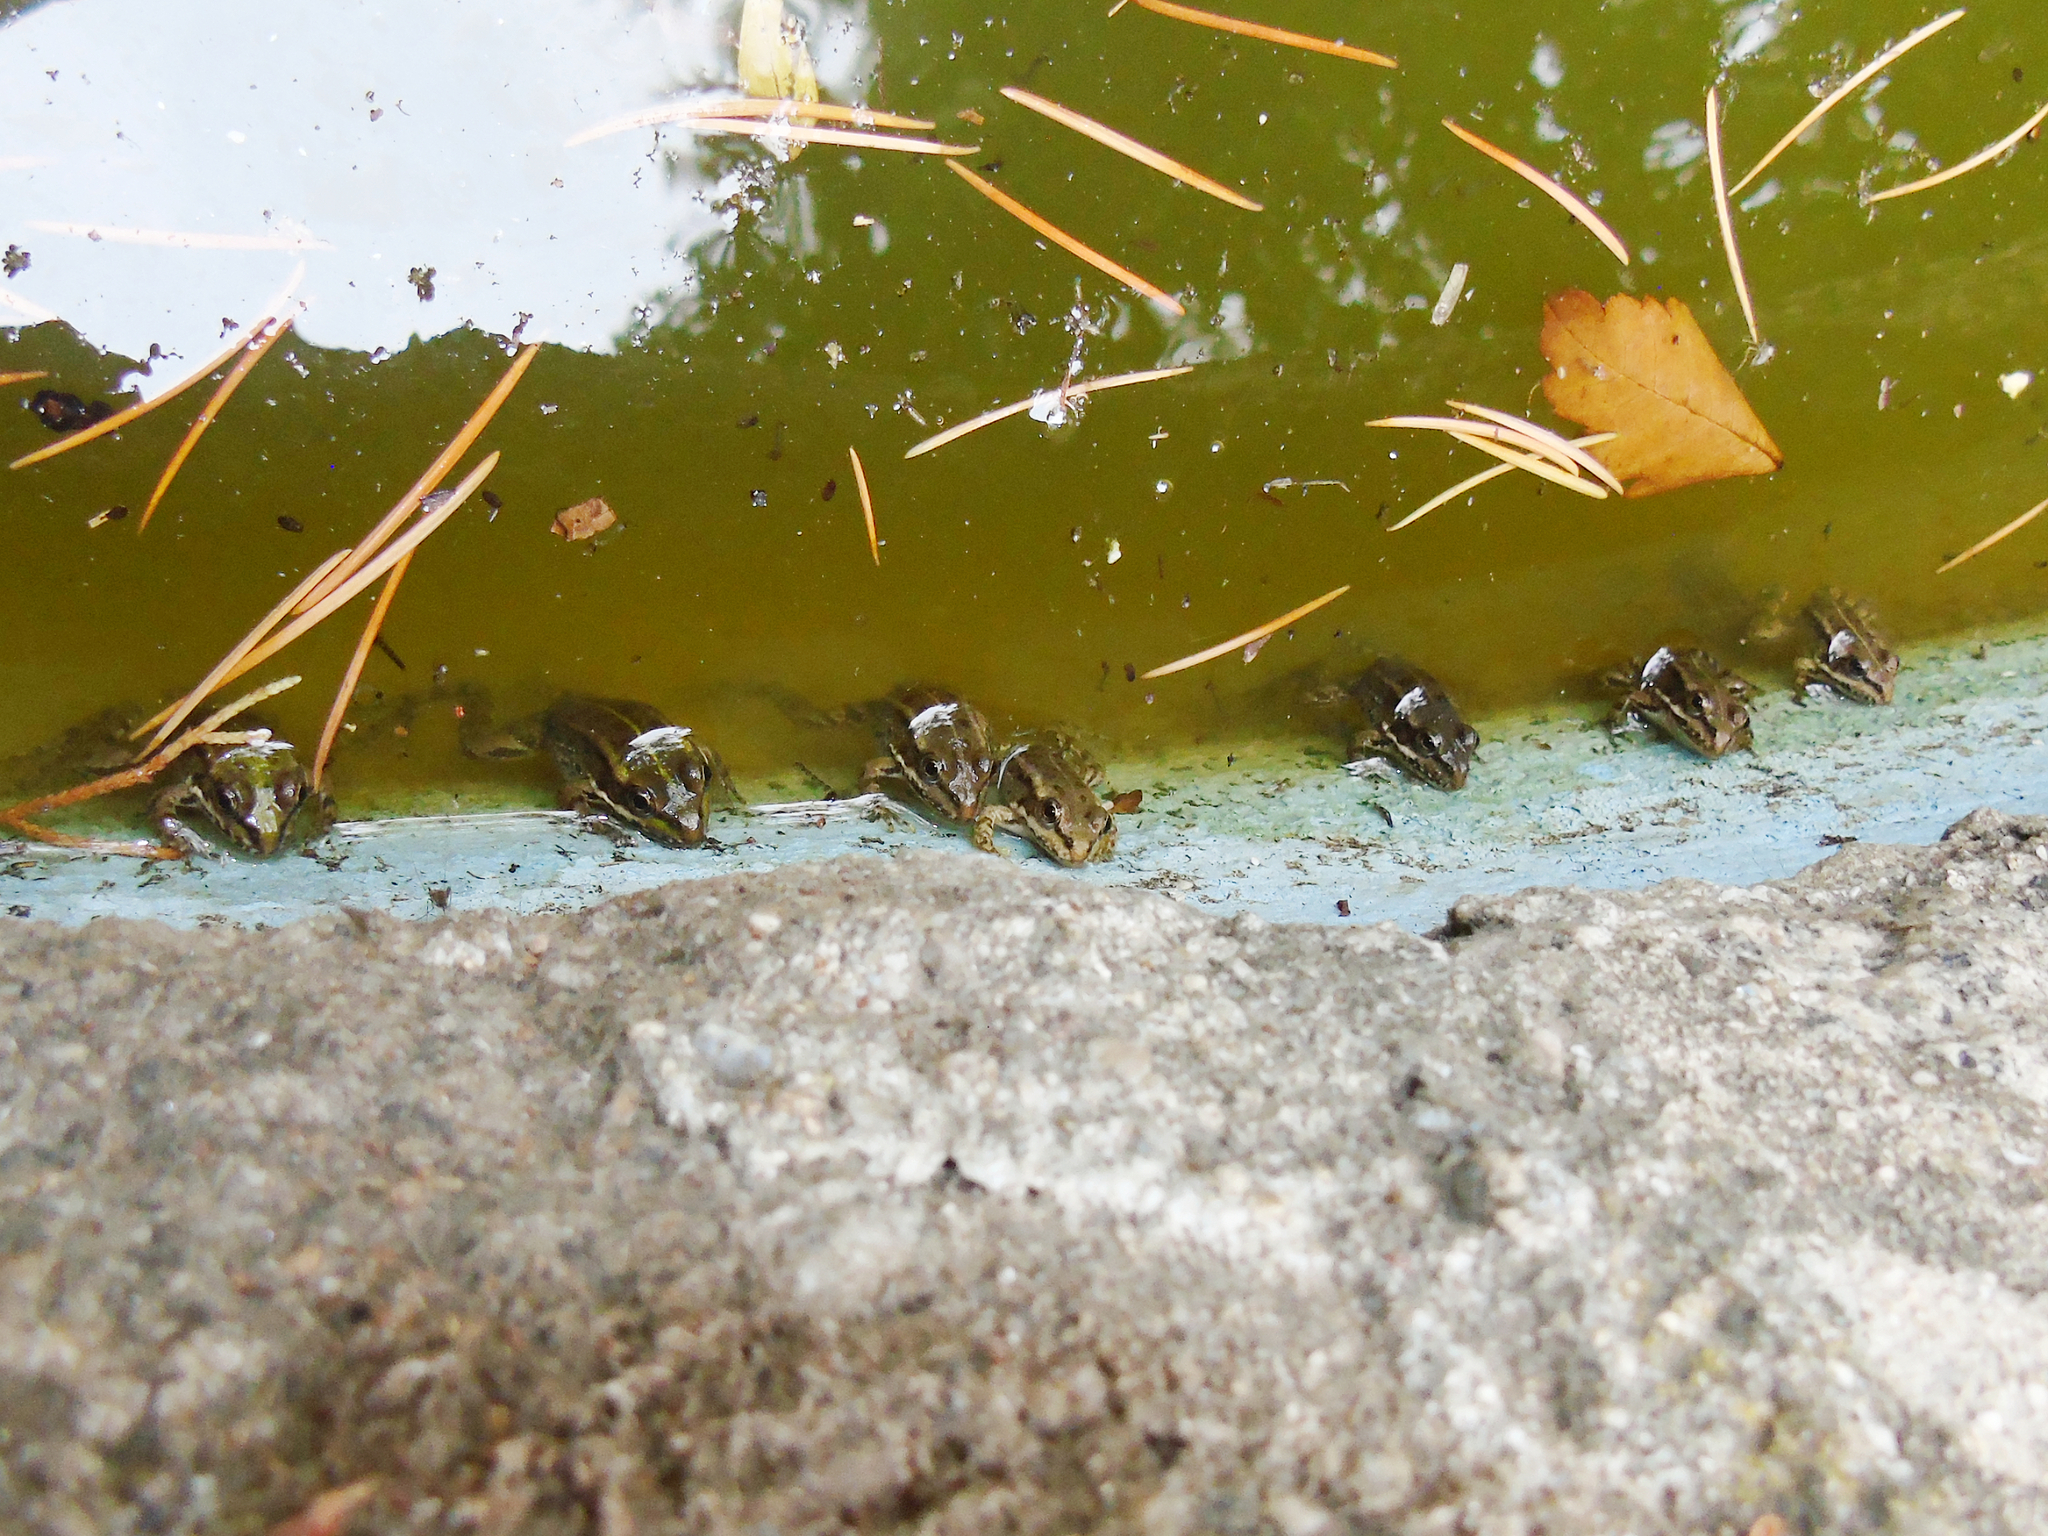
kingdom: Animalia
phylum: Chordata
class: Amphibia
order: Anura
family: Ranidae
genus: Pelophylax
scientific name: Pelophylax ridibundus
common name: Marsh frog
